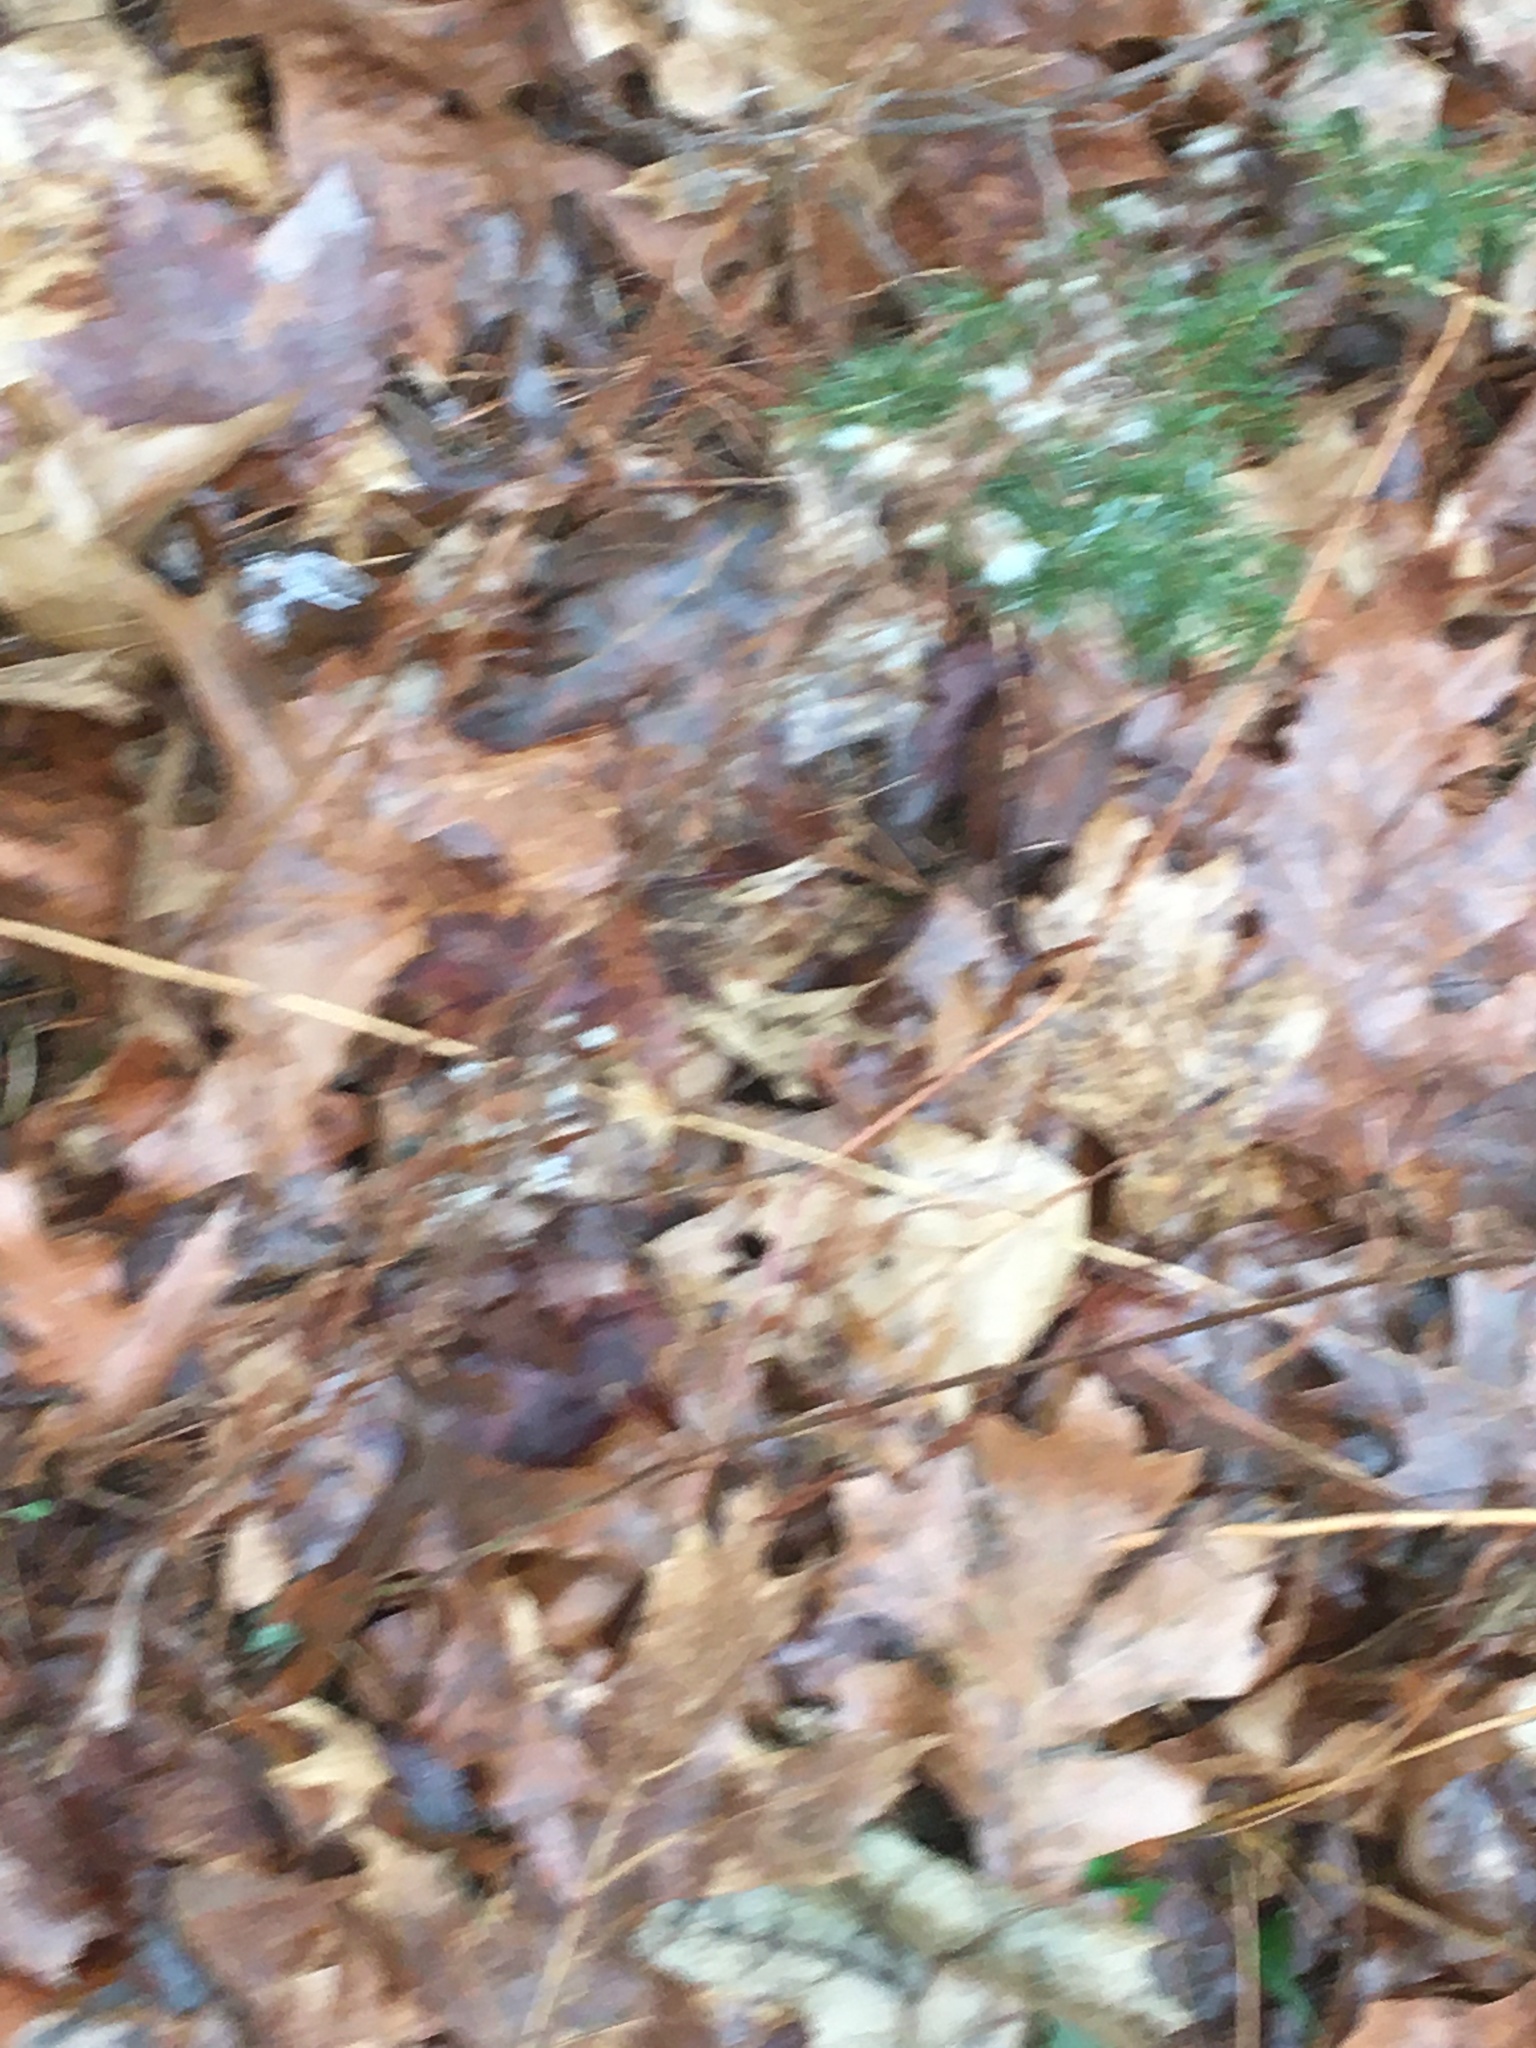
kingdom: Plantae
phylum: Tracheophyta
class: Magnoliopsida
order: Asterales
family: Asteraceae
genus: Solidago
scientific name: Solidago bicolor
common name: Silverrod
